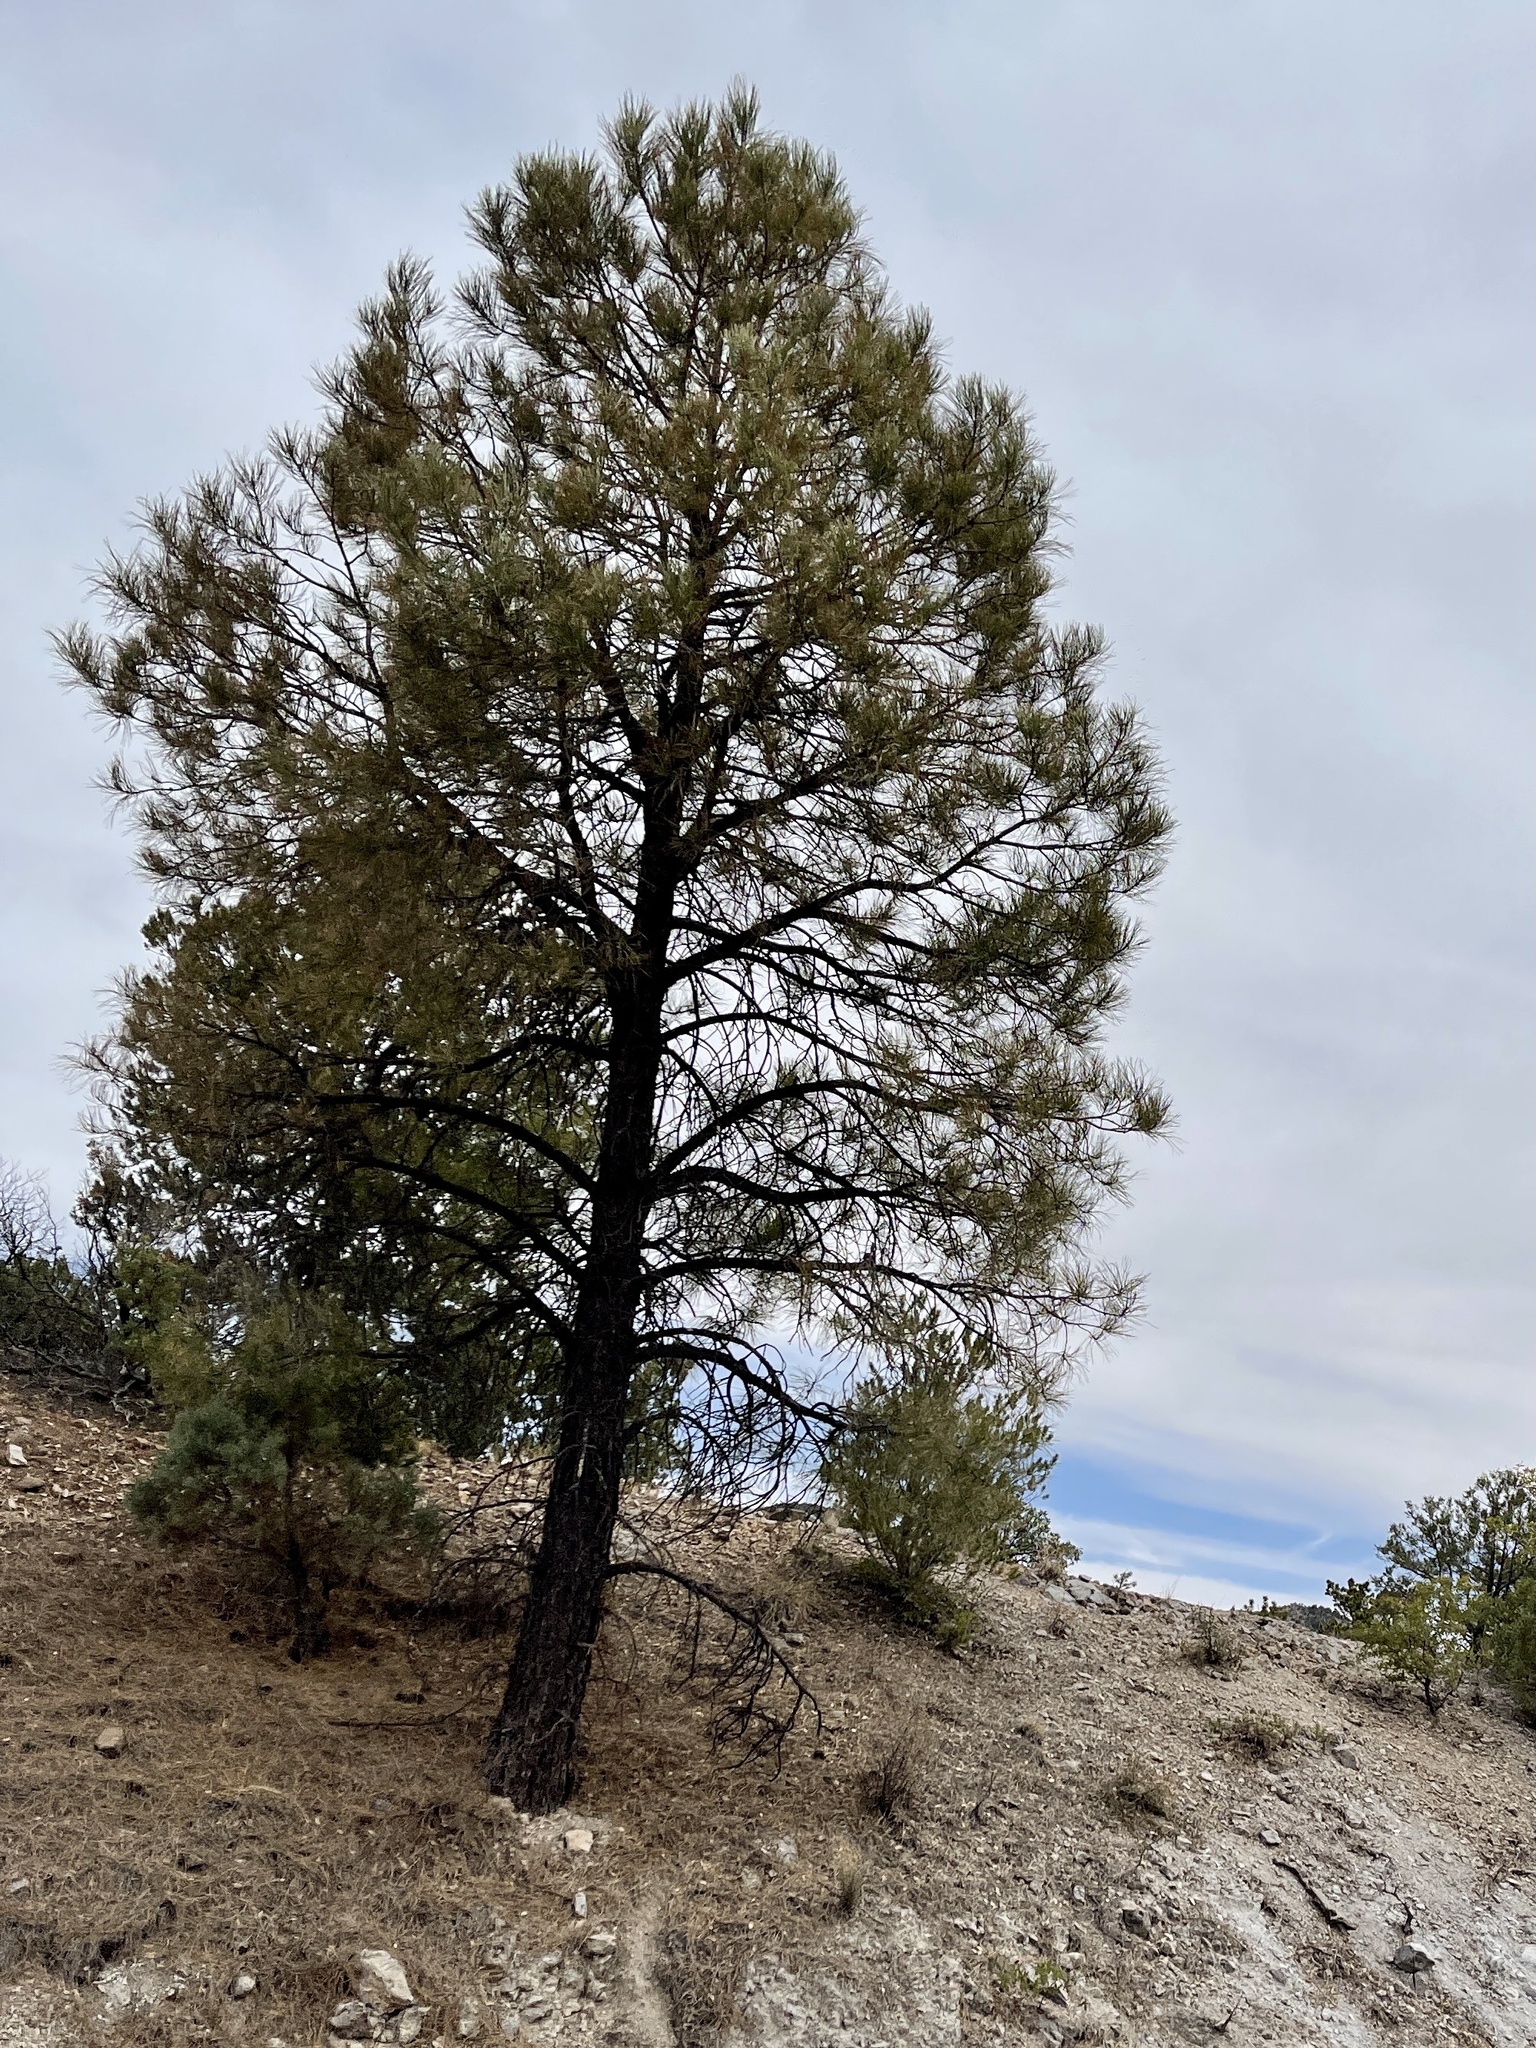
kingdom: Plantae
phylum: Tracheophyta
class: Pinopsida
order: Pinales
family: Pinaceae
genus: Pinus
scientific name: Pinus ponderosa
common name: Western yellow-pine
